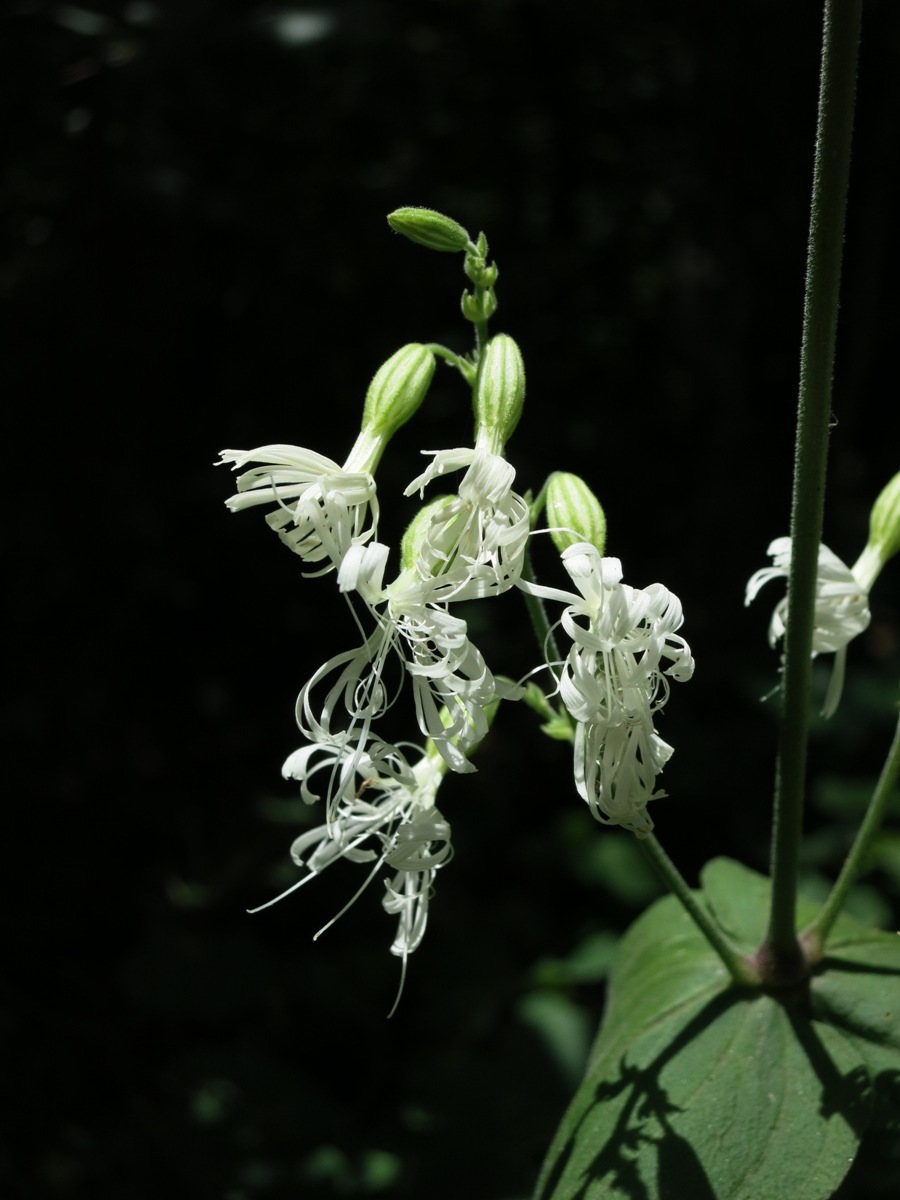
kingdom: Plantae
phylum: Tracheophyta
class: Magnoliopsida
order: Caryophyllales
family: Caryophyllaceae
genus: Silene
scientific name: Silene ovata
